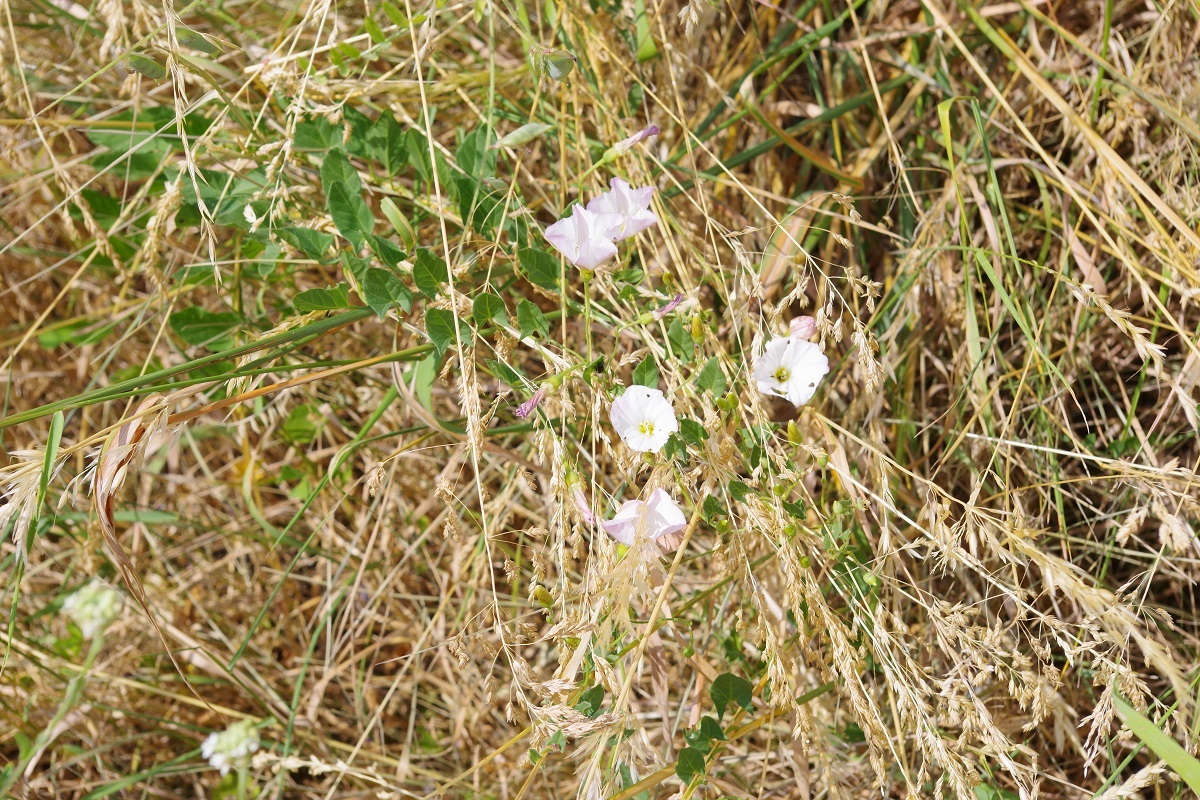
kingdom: Plantae
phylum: Tracheophyta
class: Magnoliopsida
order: Solanales
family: Convolvulaceae
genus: Convolvulus
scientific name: Convolvulus arvensis
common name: Field bindweed
